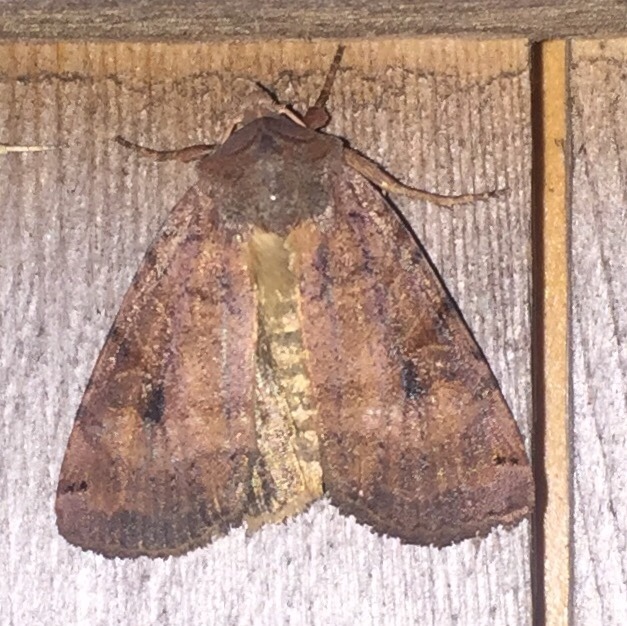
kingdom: Animalia
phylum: Arthropoda
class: Insecta
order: Lepidoptera
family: Noctuidae
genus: Noctua
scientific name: Noctua pronuba
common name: Large yellow underwing
